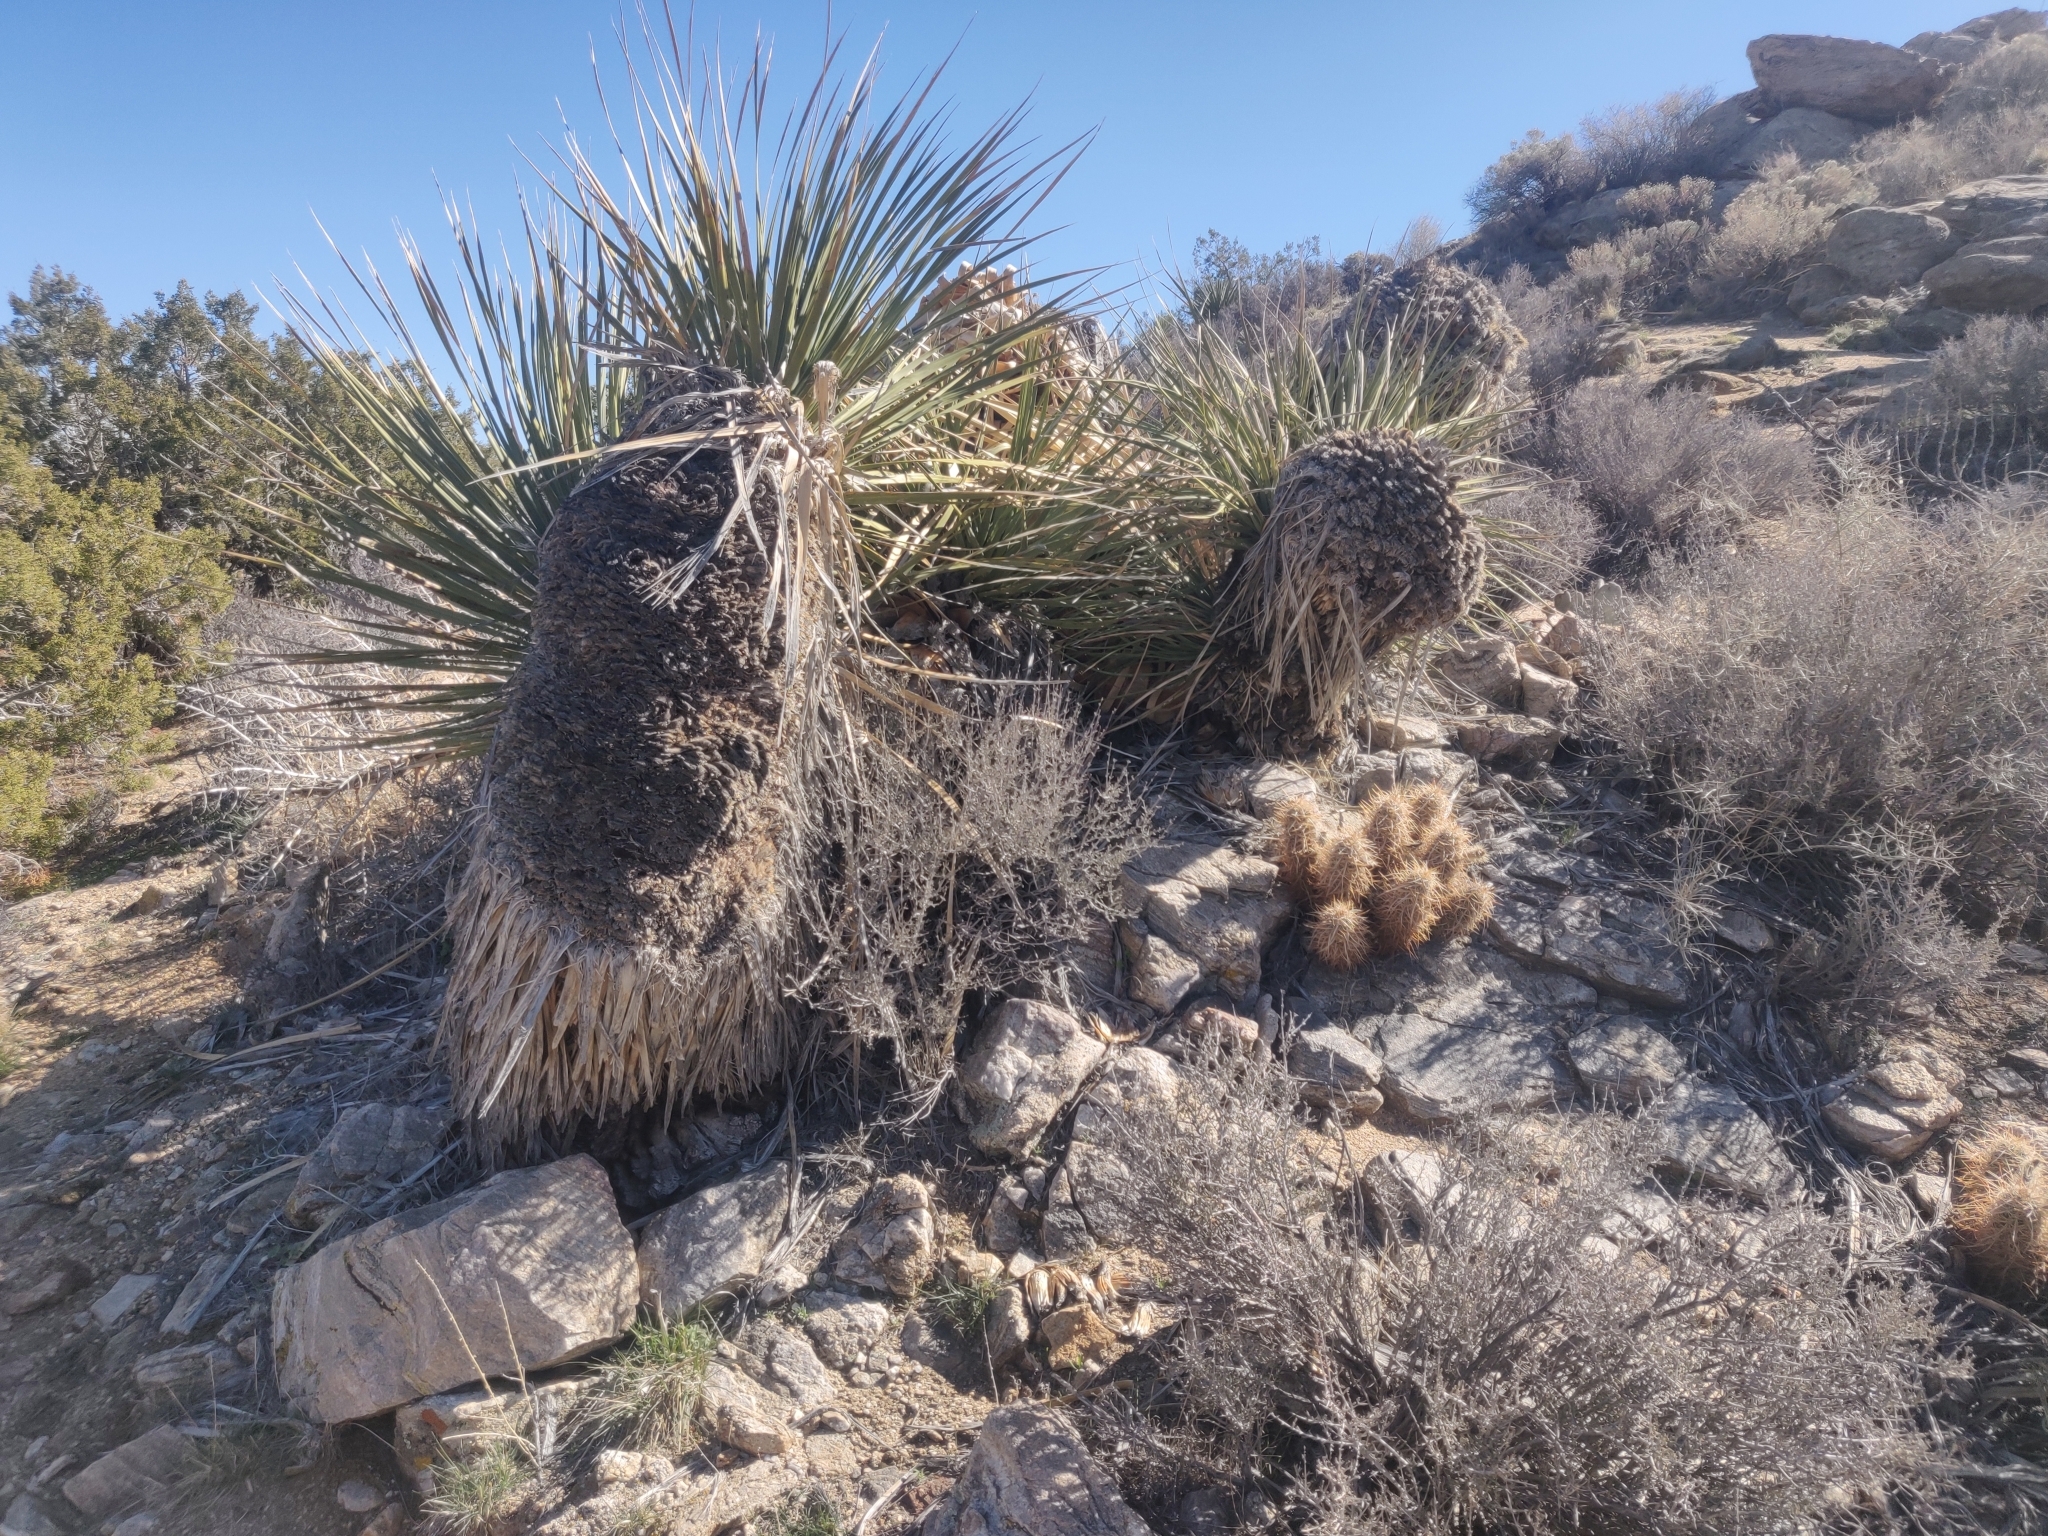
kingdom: Plantae
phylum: Tracheophyta
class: Magnoliopsida
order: Caryophyllales
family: Cactaceae
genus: Echinocereus
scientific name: Echinocereus engelmannii
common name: Engelmann's hedgehog cactus
